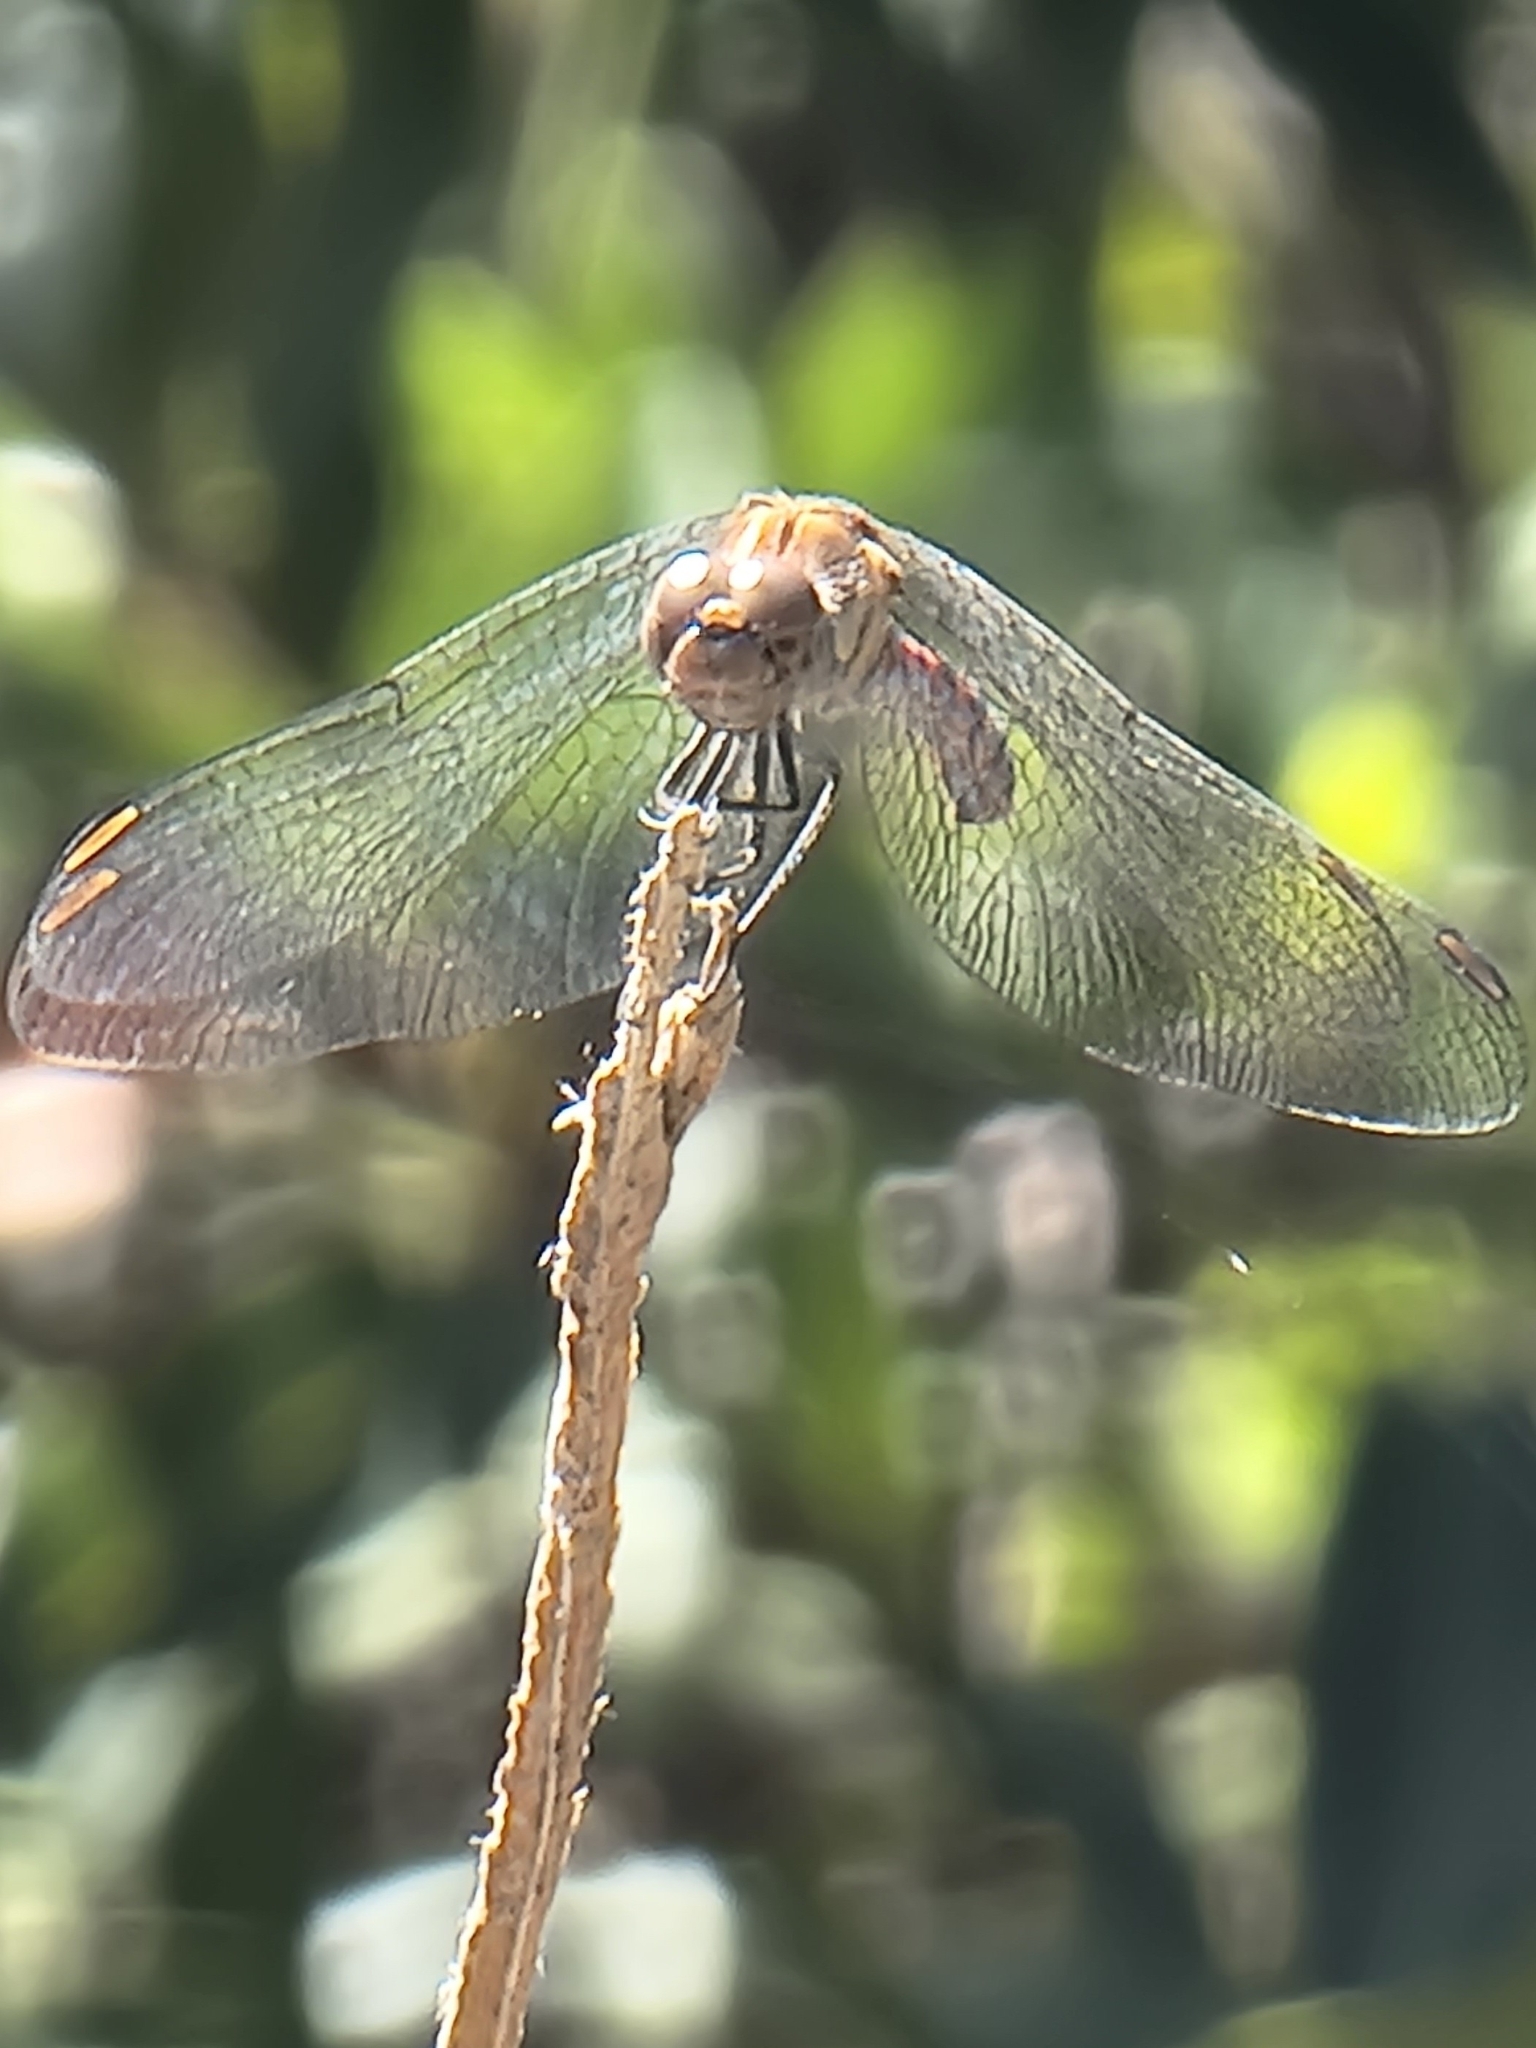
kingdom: Animalia
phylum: Arthropoda
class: Insecta
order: Odonata
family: Libellulidae
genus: Sympetrum
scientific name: Sympetrum nigrifemur
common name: Island darter
